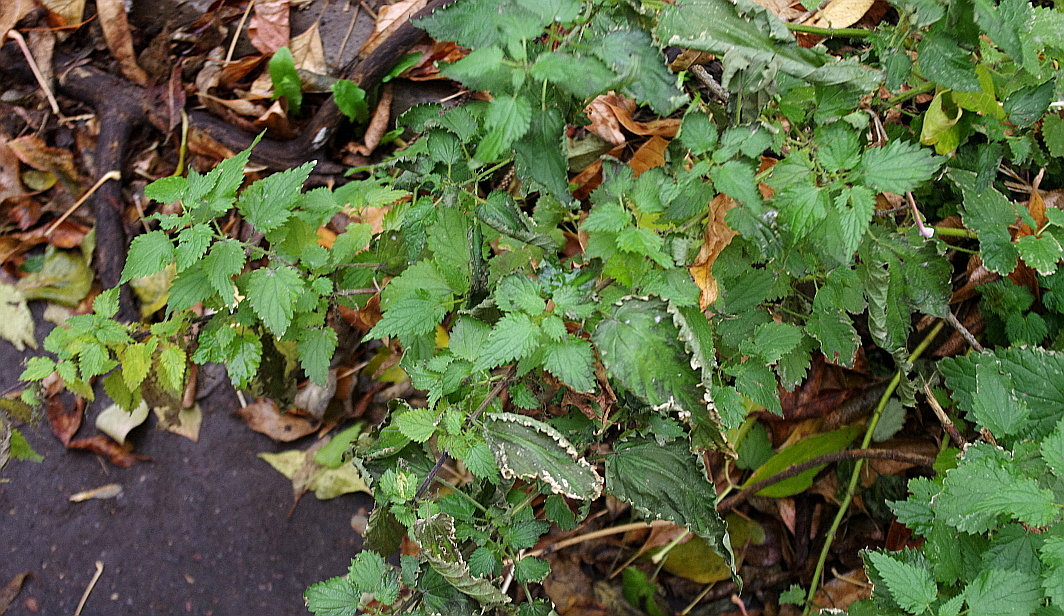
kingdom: Plantae
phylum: Tracheophyta
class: Magnoliopsida
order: Rosales
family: Urticaceae
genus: Urtica
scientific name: Urtica dioica
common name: Common nettle
